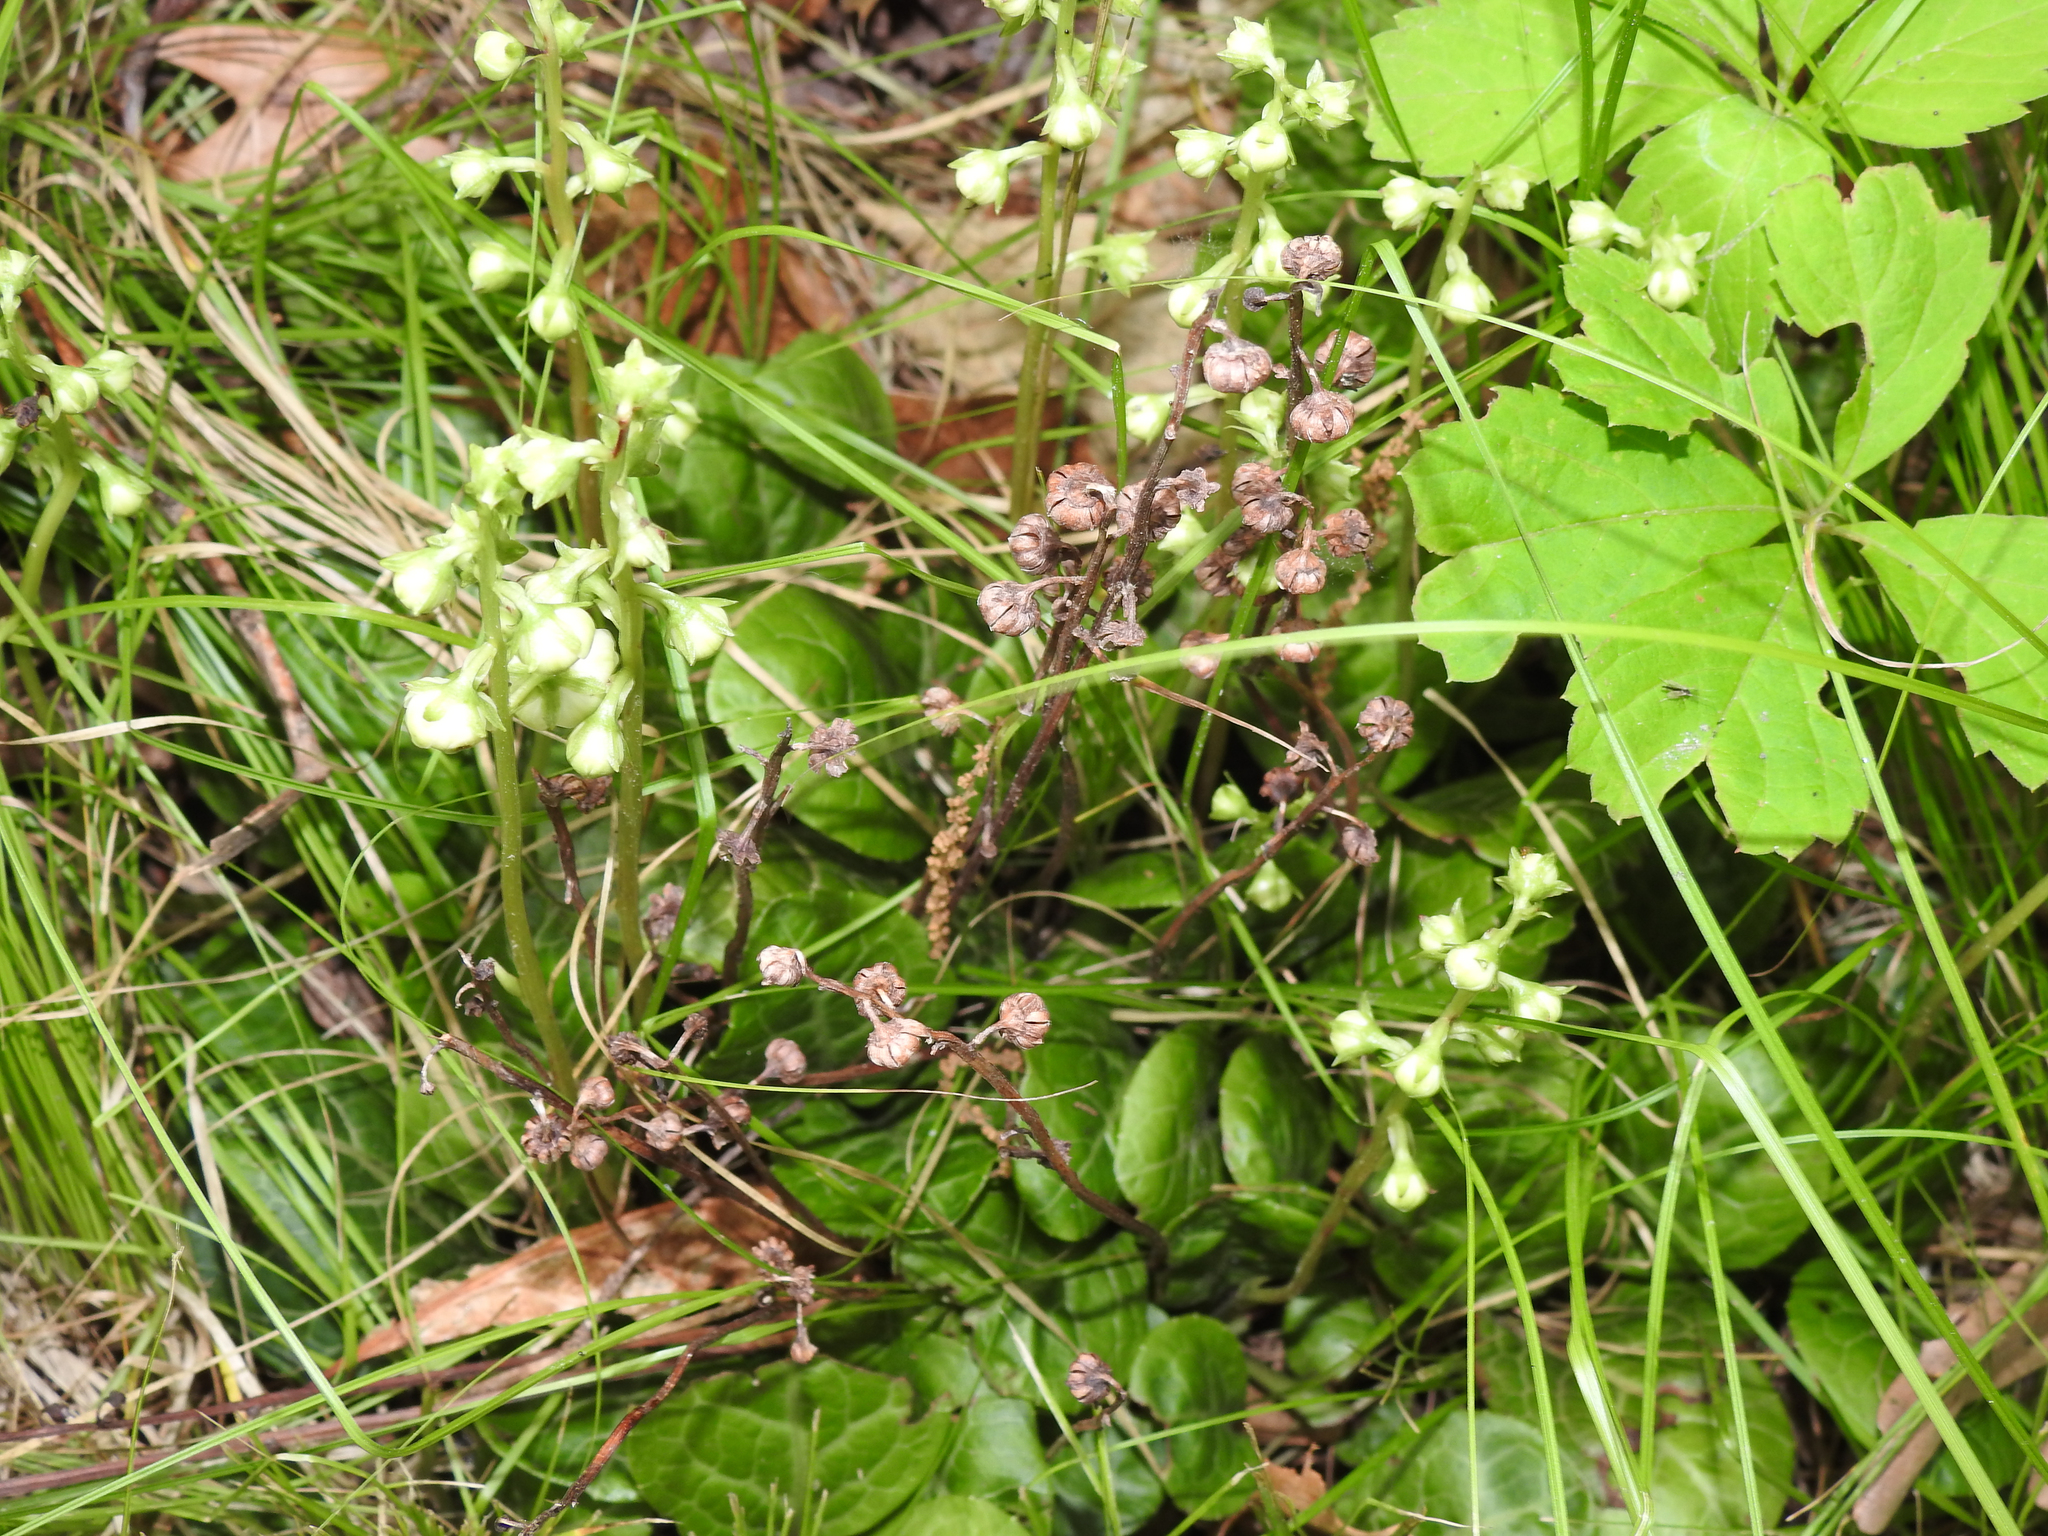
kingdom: Plantae
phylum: Tracheophyta
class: Magnoliopsida
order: Ericales
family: Ericaceae
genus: Pyrola
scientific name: Pyrola americana
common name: American wintergreen
